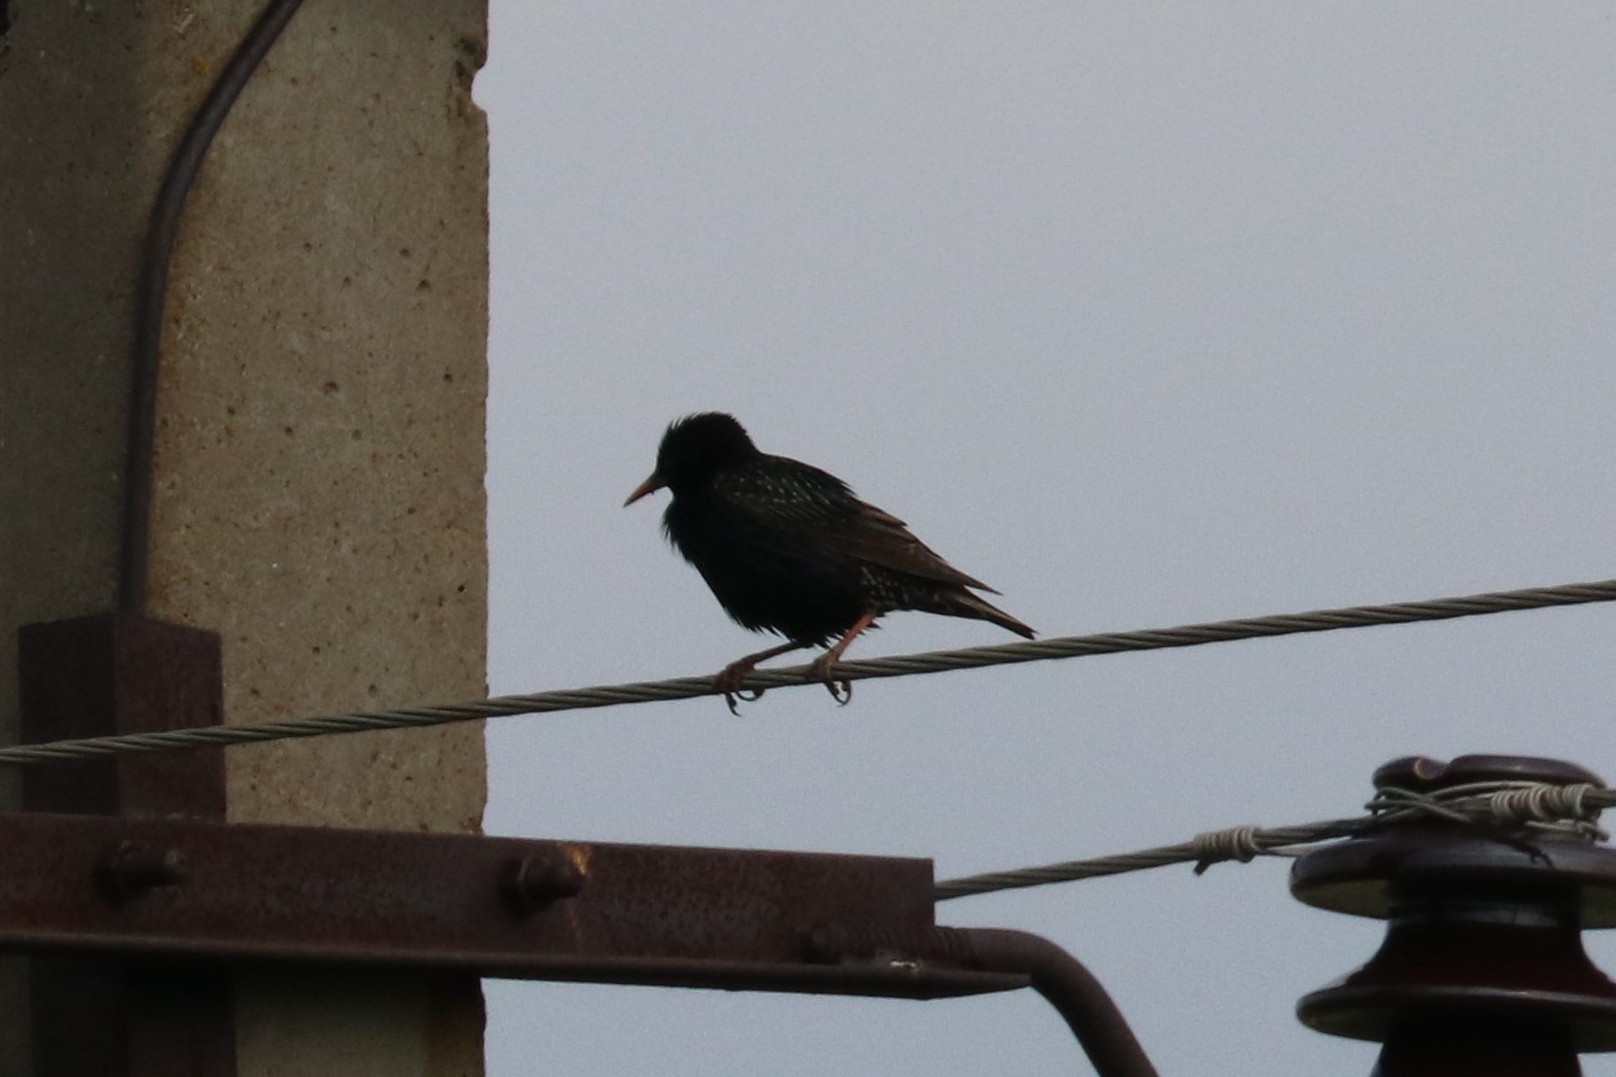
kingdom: Animalia
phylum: Chordata
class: Aves
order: Passeriformes
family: Sturnidae
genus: Sturnus
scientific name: Sturnus vulgaris
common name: Common starling
